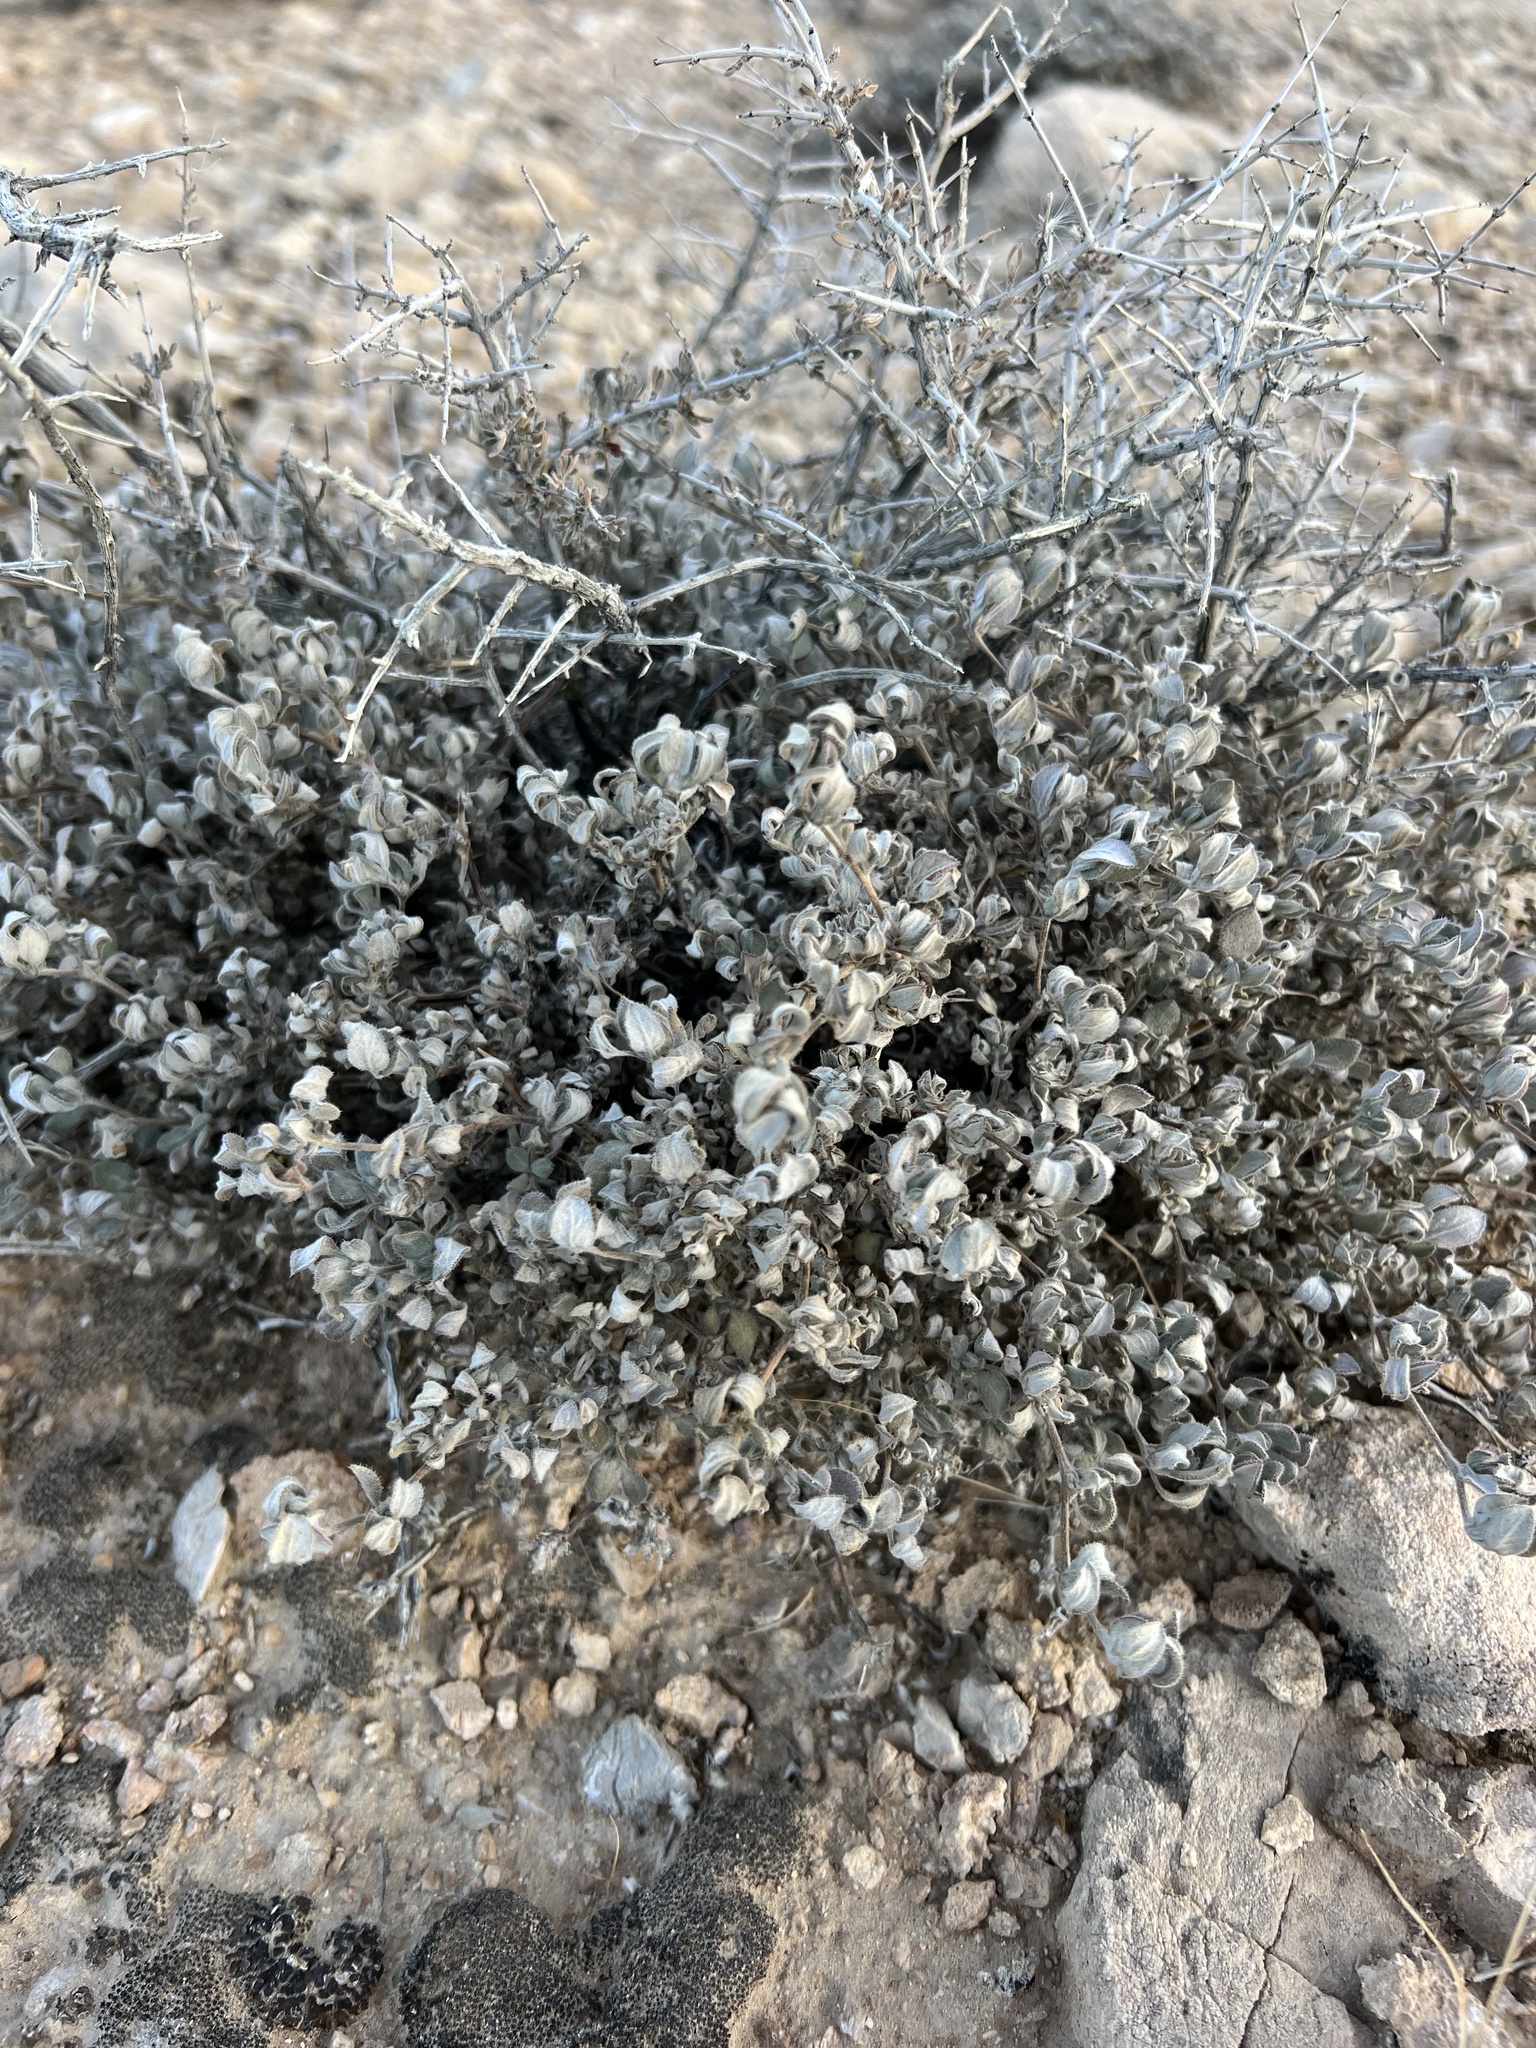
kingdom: Plantae
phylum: Tracheophyta
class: Magnoliopsida
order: Boraginales
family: Ehretiaceae
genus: Tiquilia
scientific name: Tiquilia canescens
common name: Hairy tiquilia
